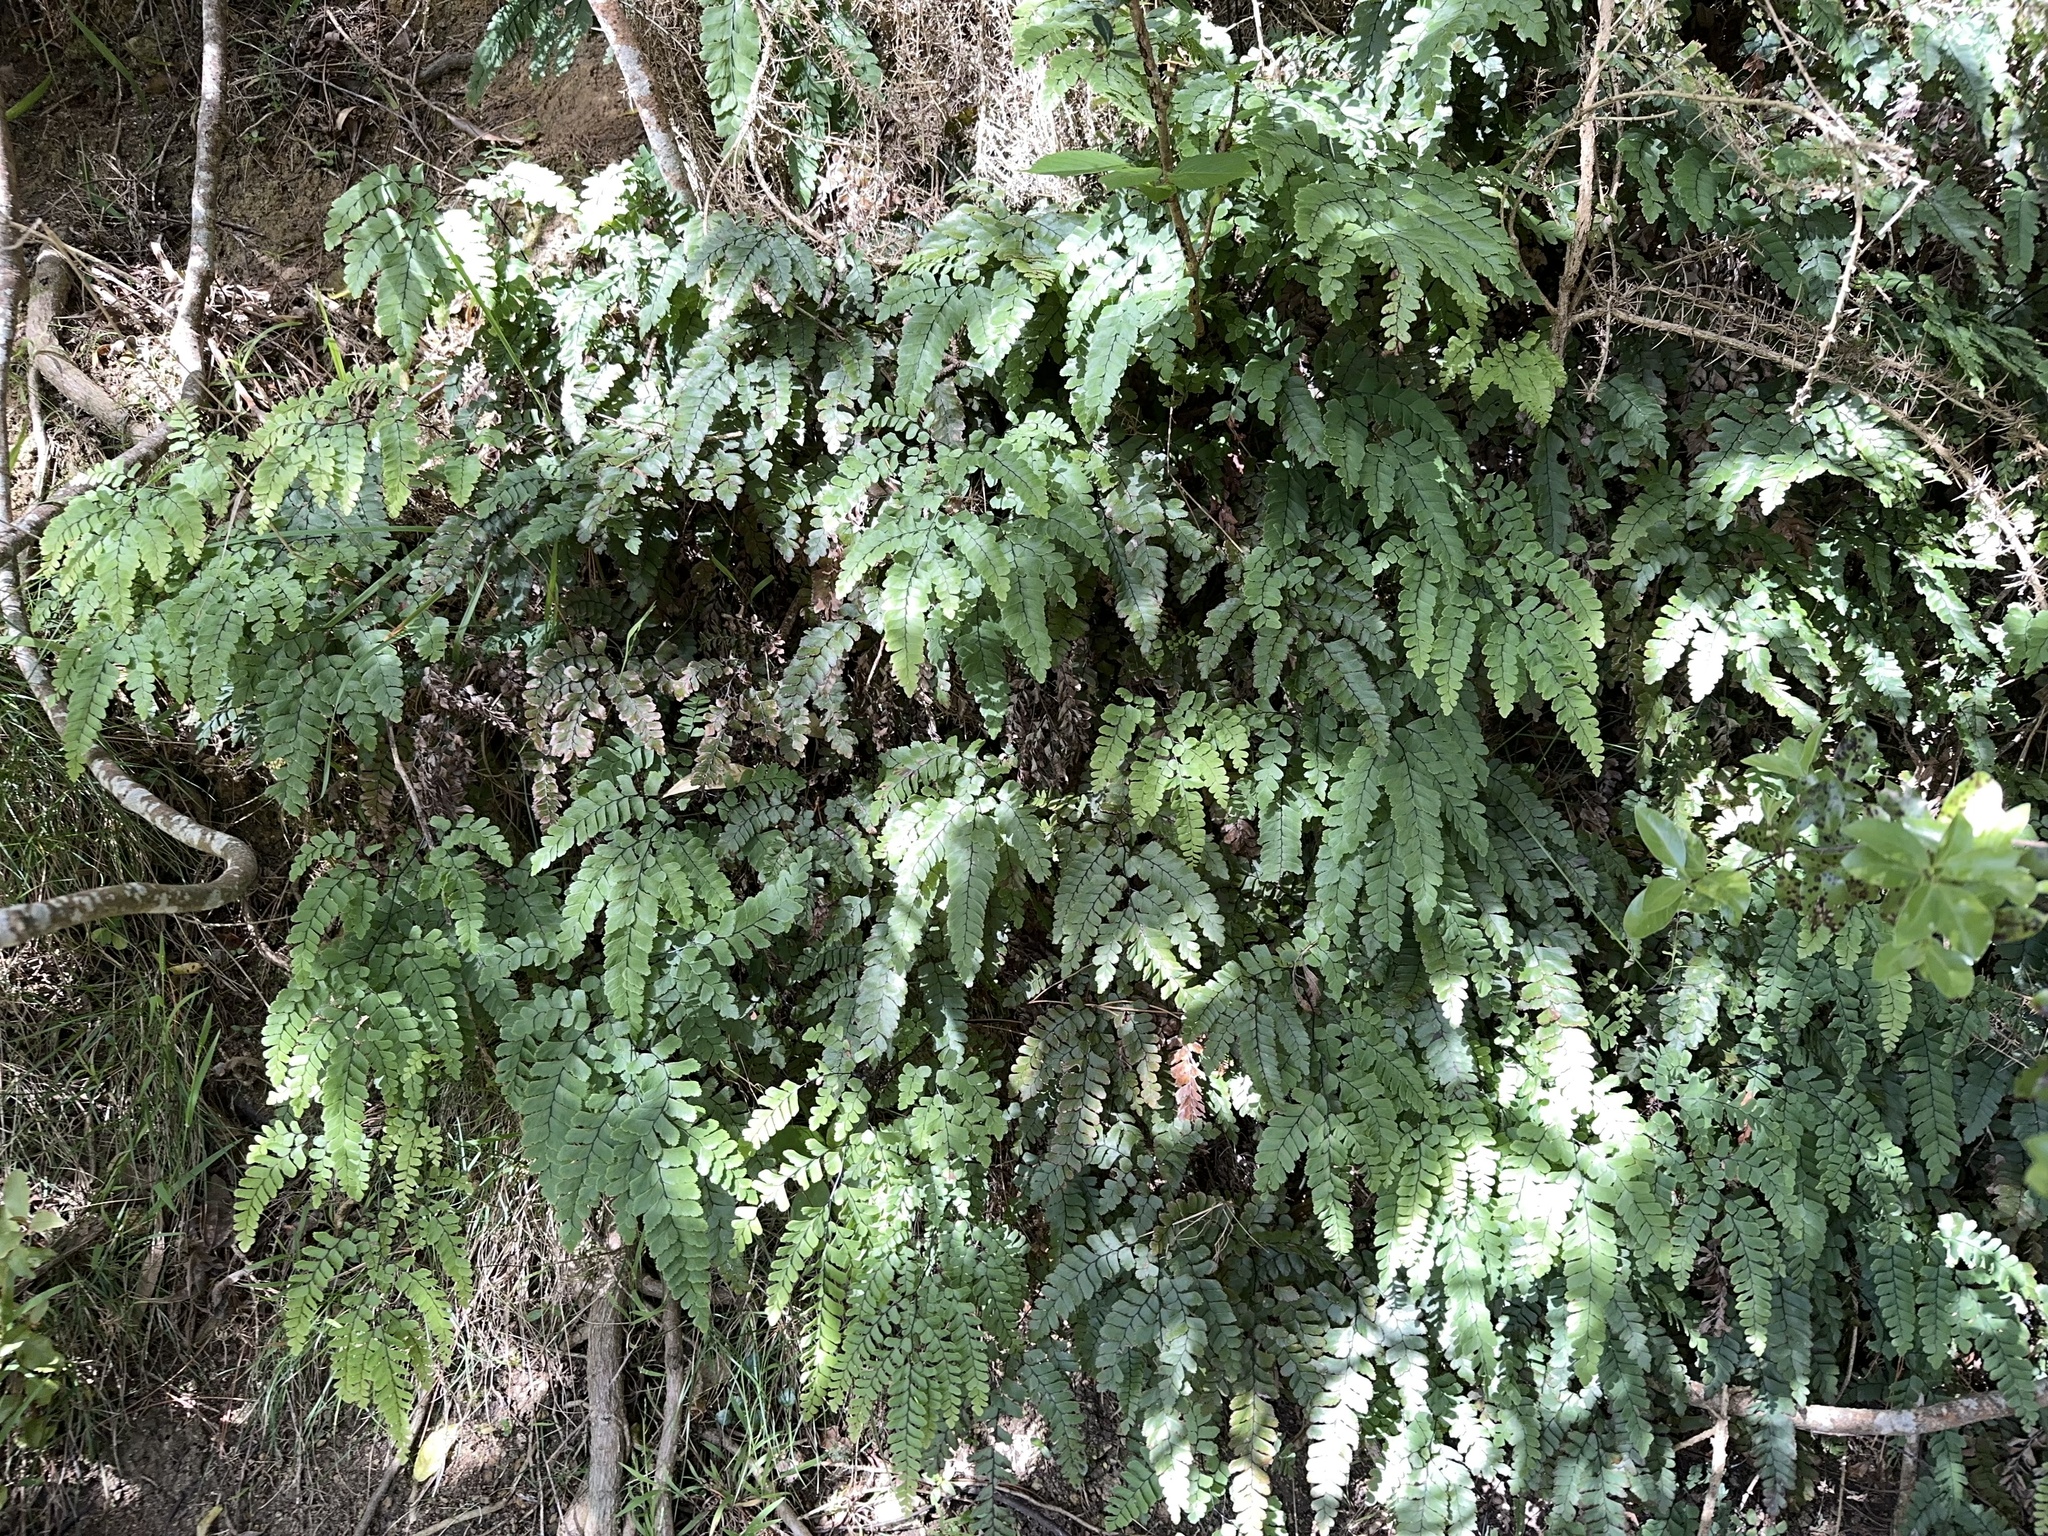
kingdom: Plantae
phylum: Tracheophyta
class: Polypodiopsida
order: Polypodiales
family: Pteridaceae
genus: Adiantum
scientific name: Adiantum cunninghamii
